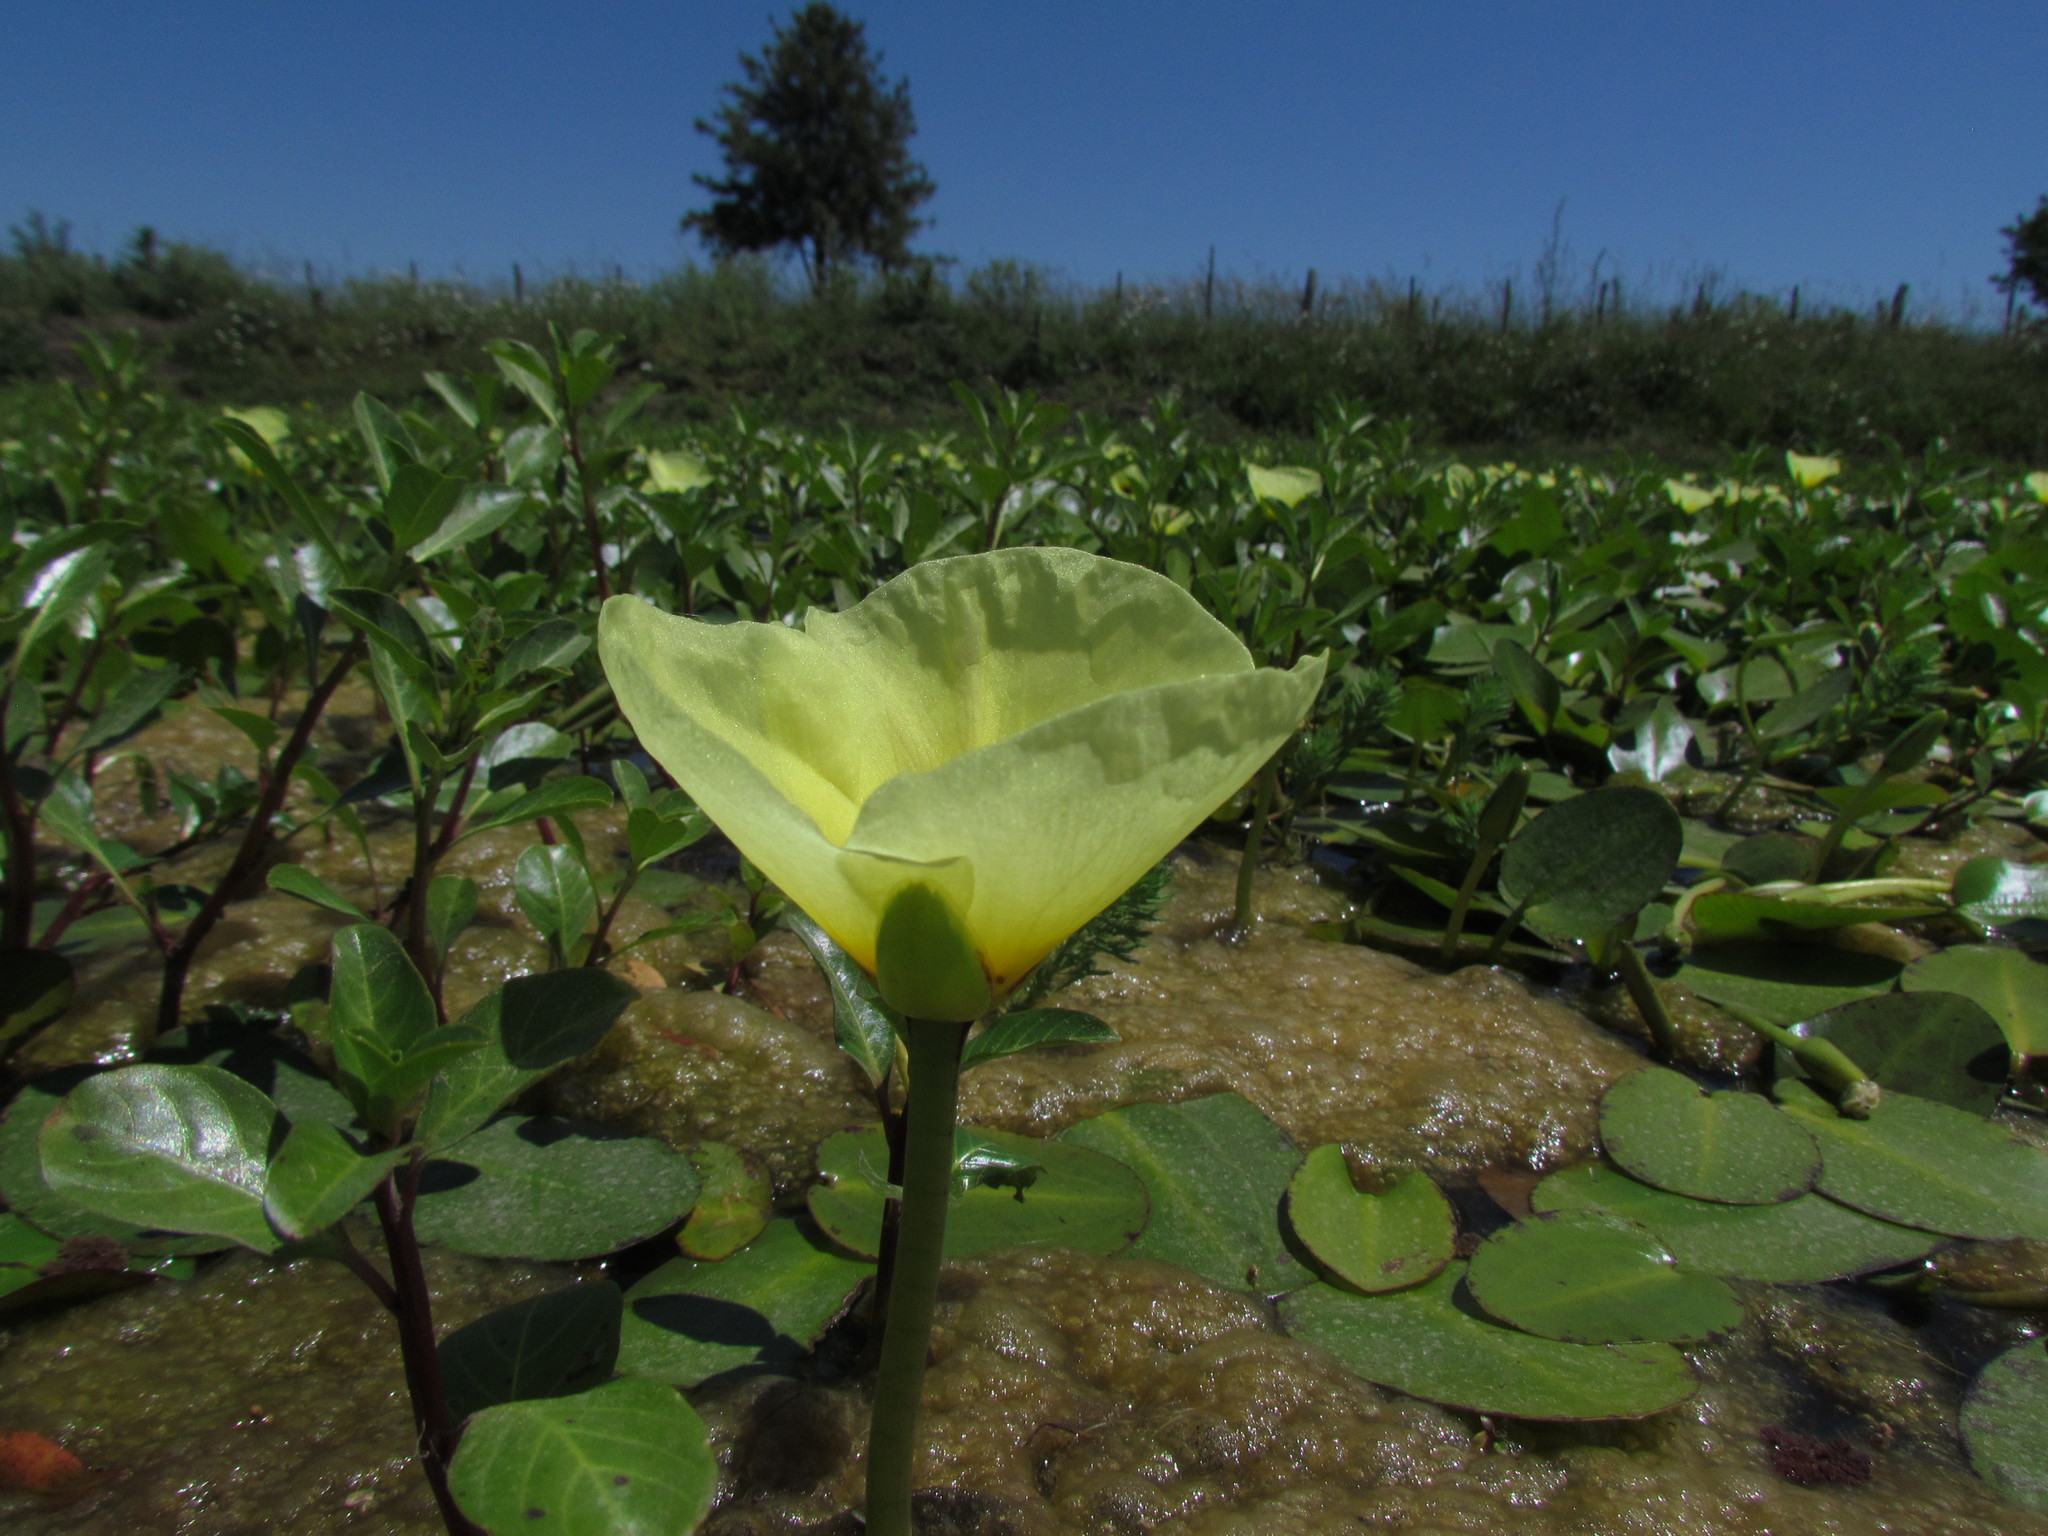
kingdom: Plantae
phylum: Tracheophyta
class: Liliopsida
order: Alismatales
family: Alismataceae
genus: Hydrocleys
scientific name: Hydrocleys nymphoides
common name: Water-poppy
